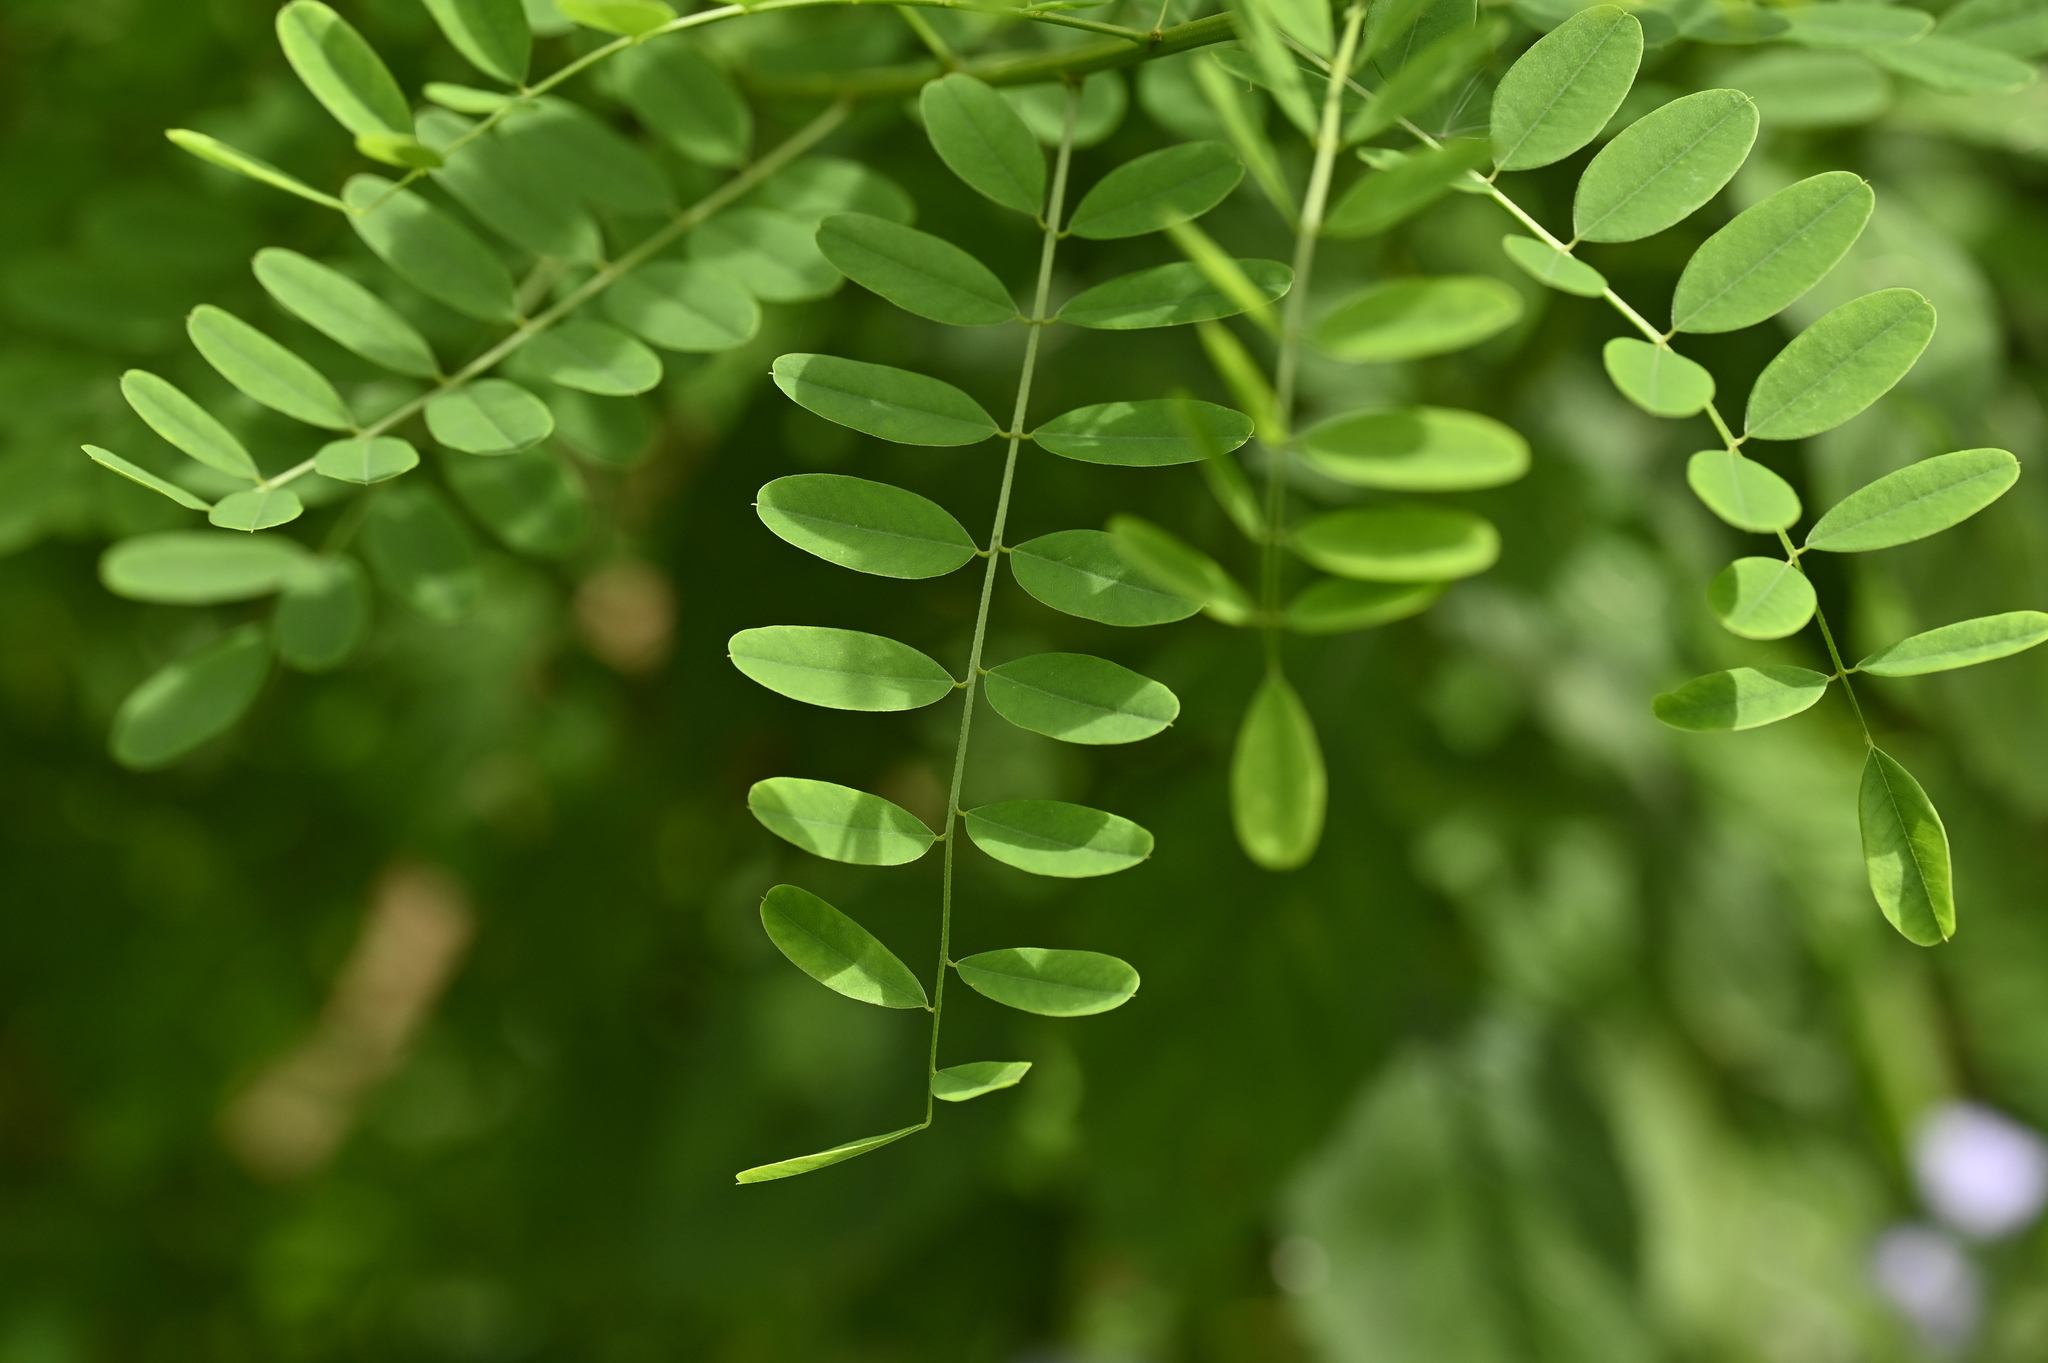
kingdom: Plantae
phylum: Tracheophyta
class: Magnoliopsida
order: Fabales
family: Fabaceae
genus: Indigofera
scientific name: Indigofera nigrescens
